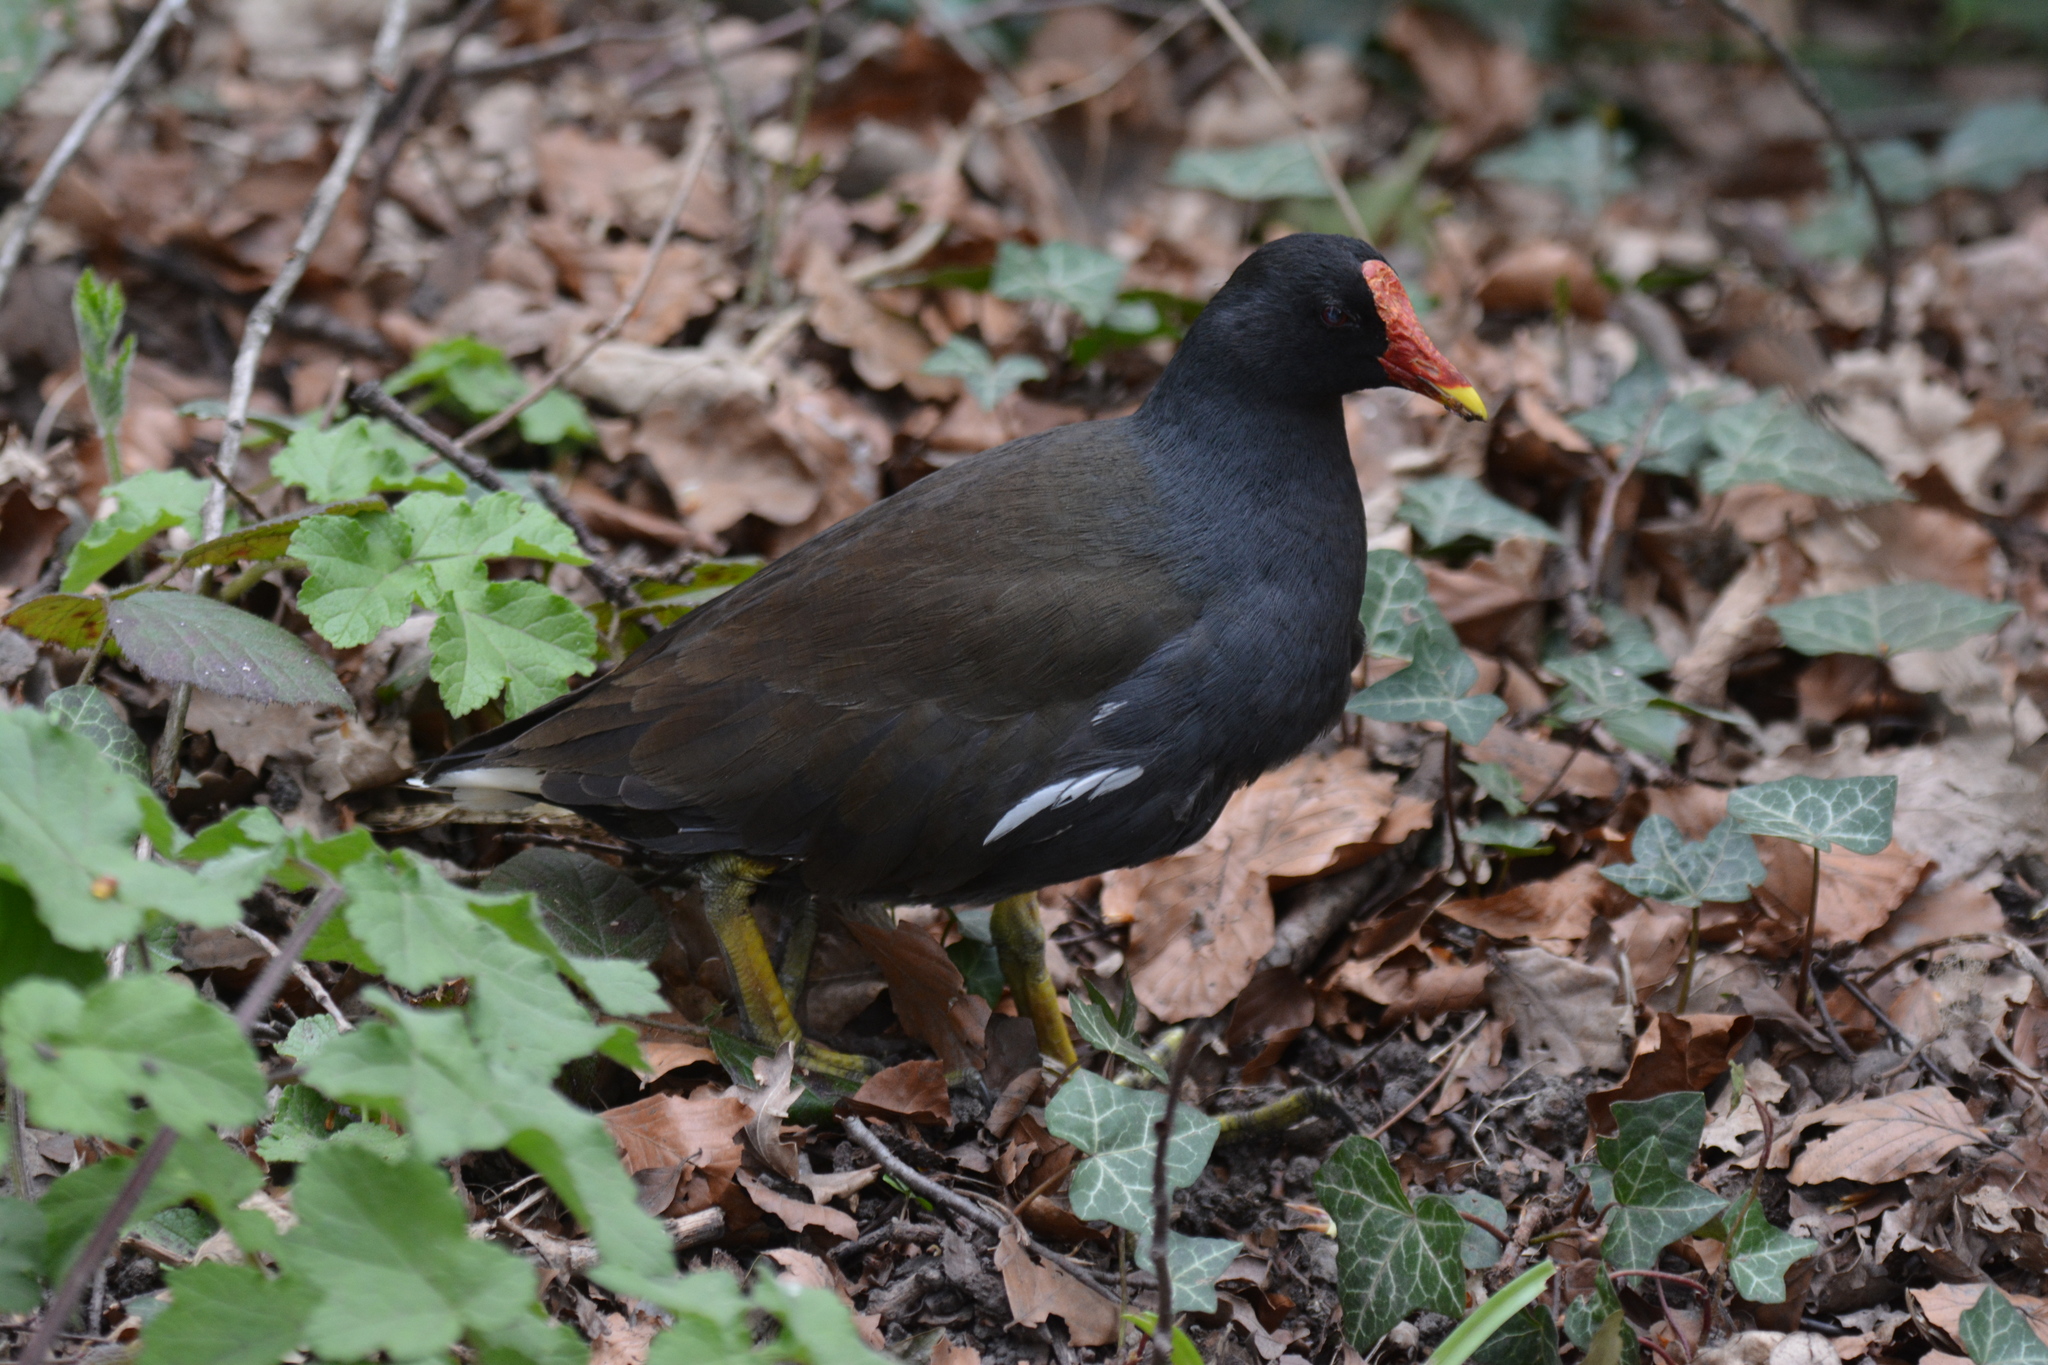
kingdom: Animalia
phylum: Chordata
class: Aves
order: Gruiformes
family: Rallidae
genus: Gallinula
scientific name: Gallinula chloropus
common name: Common moorhen
